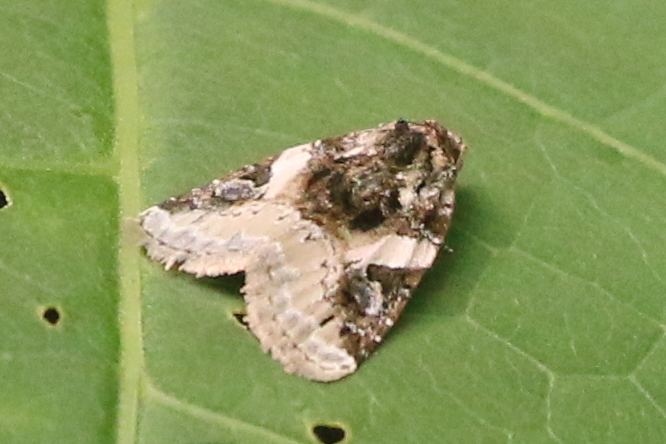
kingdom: Animalia
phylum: Arthropoda
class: Insecta
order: Lepidoptera
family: Noctuidae
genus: Pseudeustrotia
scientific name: Pseudeustrotia carneola
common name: Pink-barred lithacodia moth
